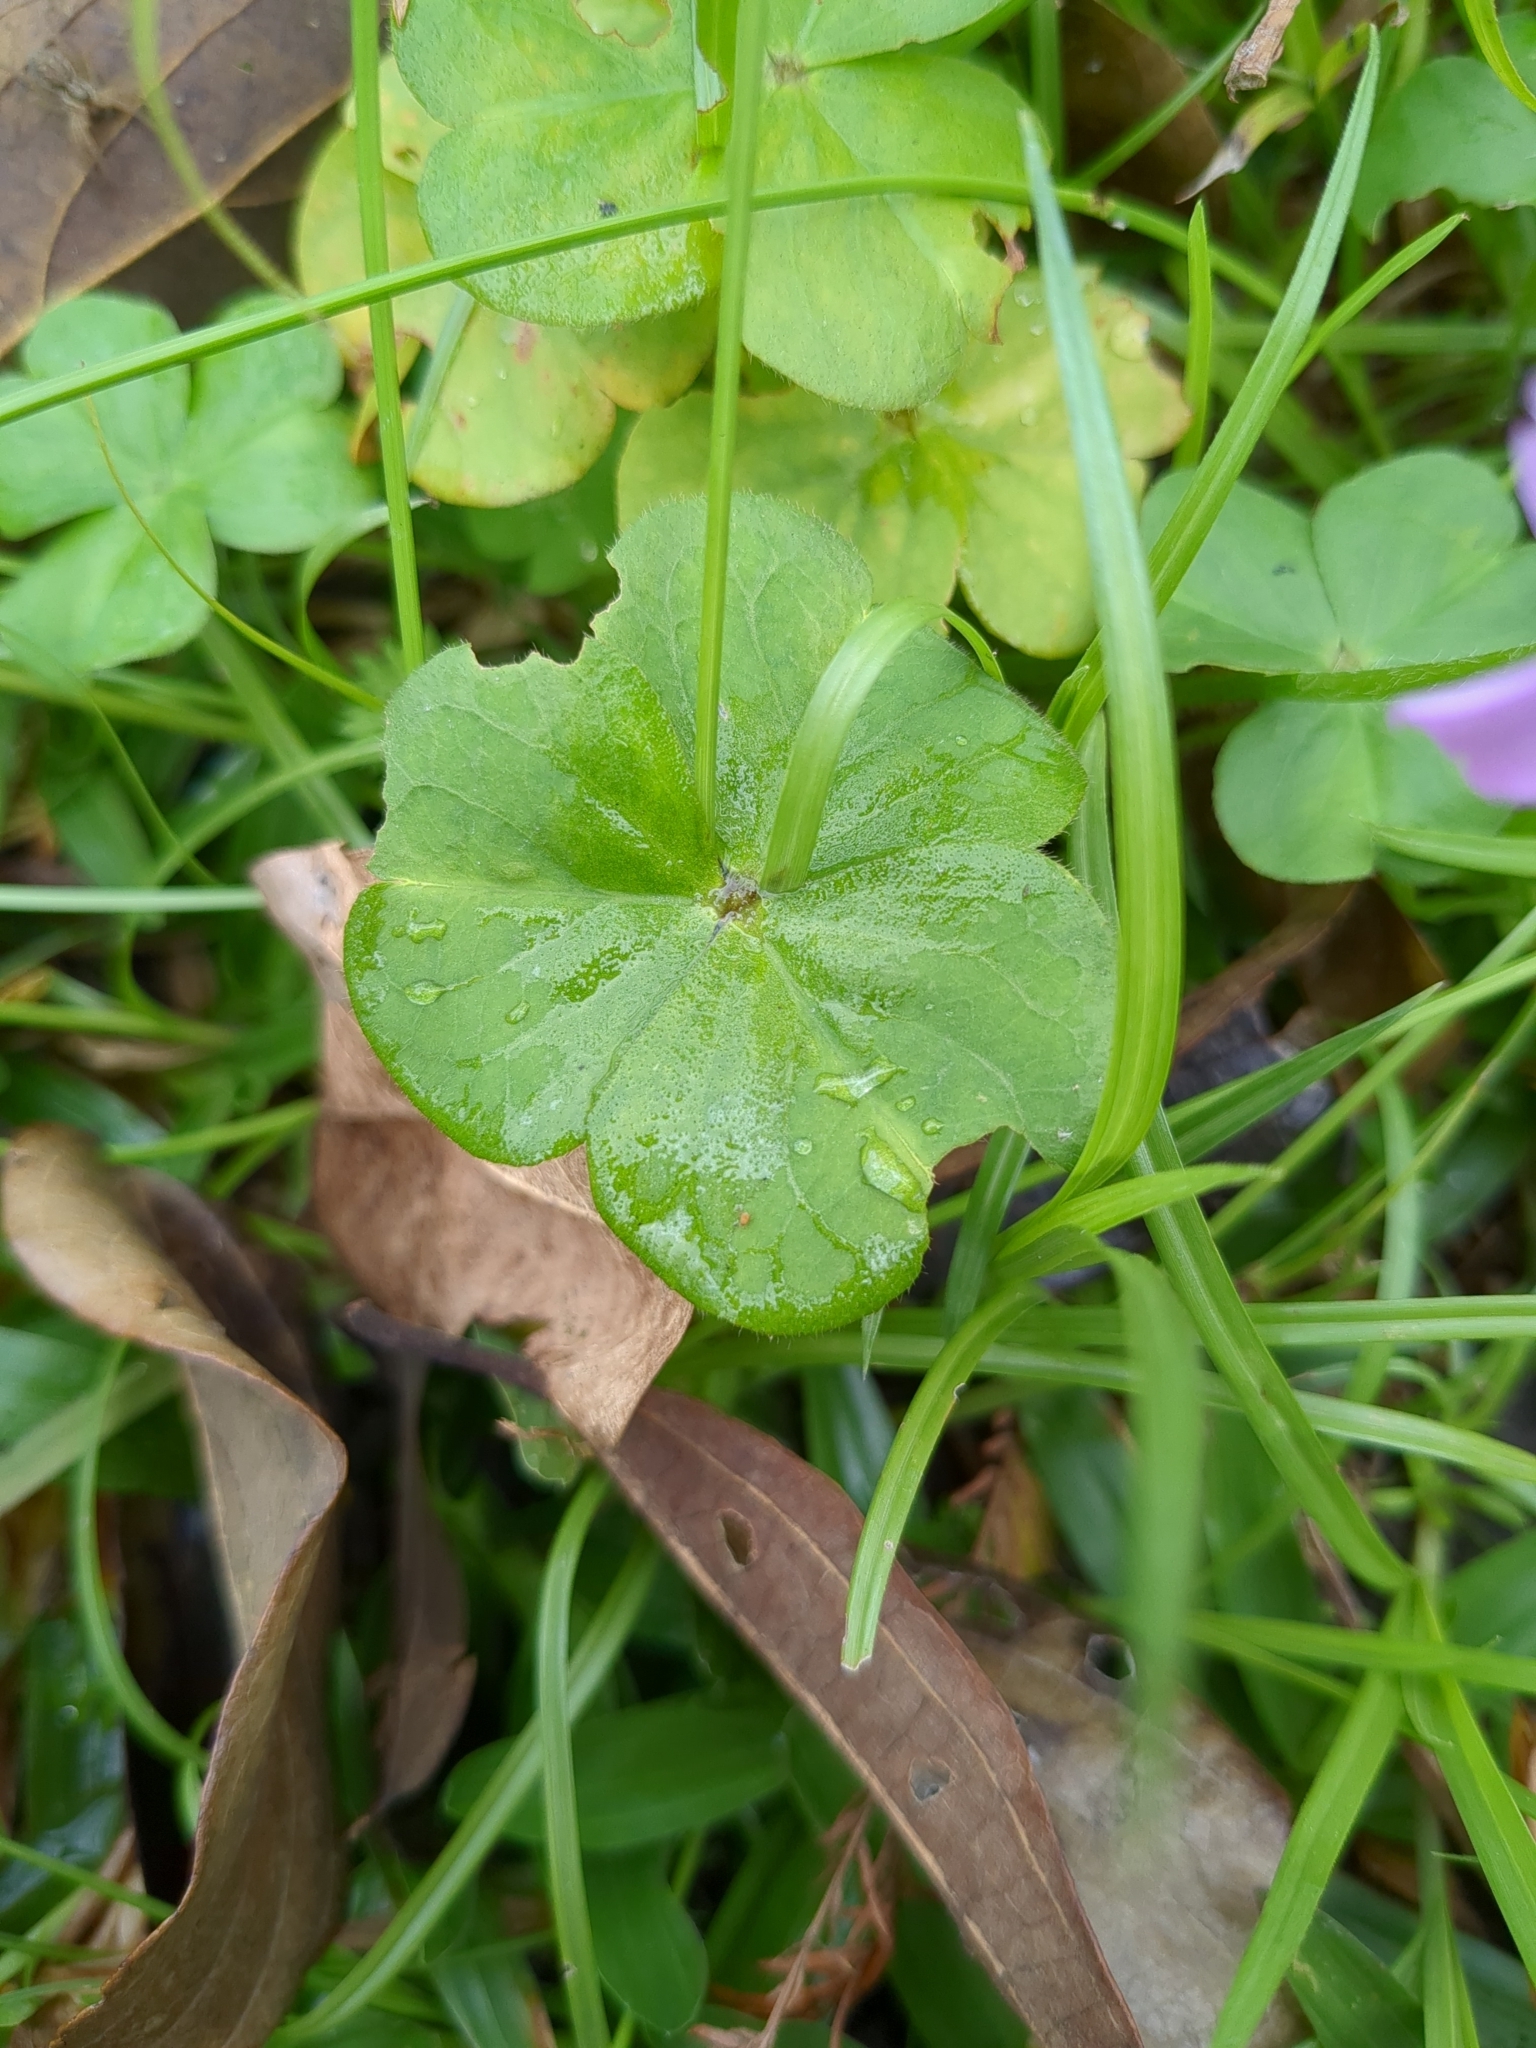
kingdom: Plantae
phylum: Tracheophyta
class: Magnoliopsida
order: Oxalidales
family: Oxalidaceae
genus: Oxalis
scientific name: Oxalis debilis
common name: Large-flowered pink-sorrel
